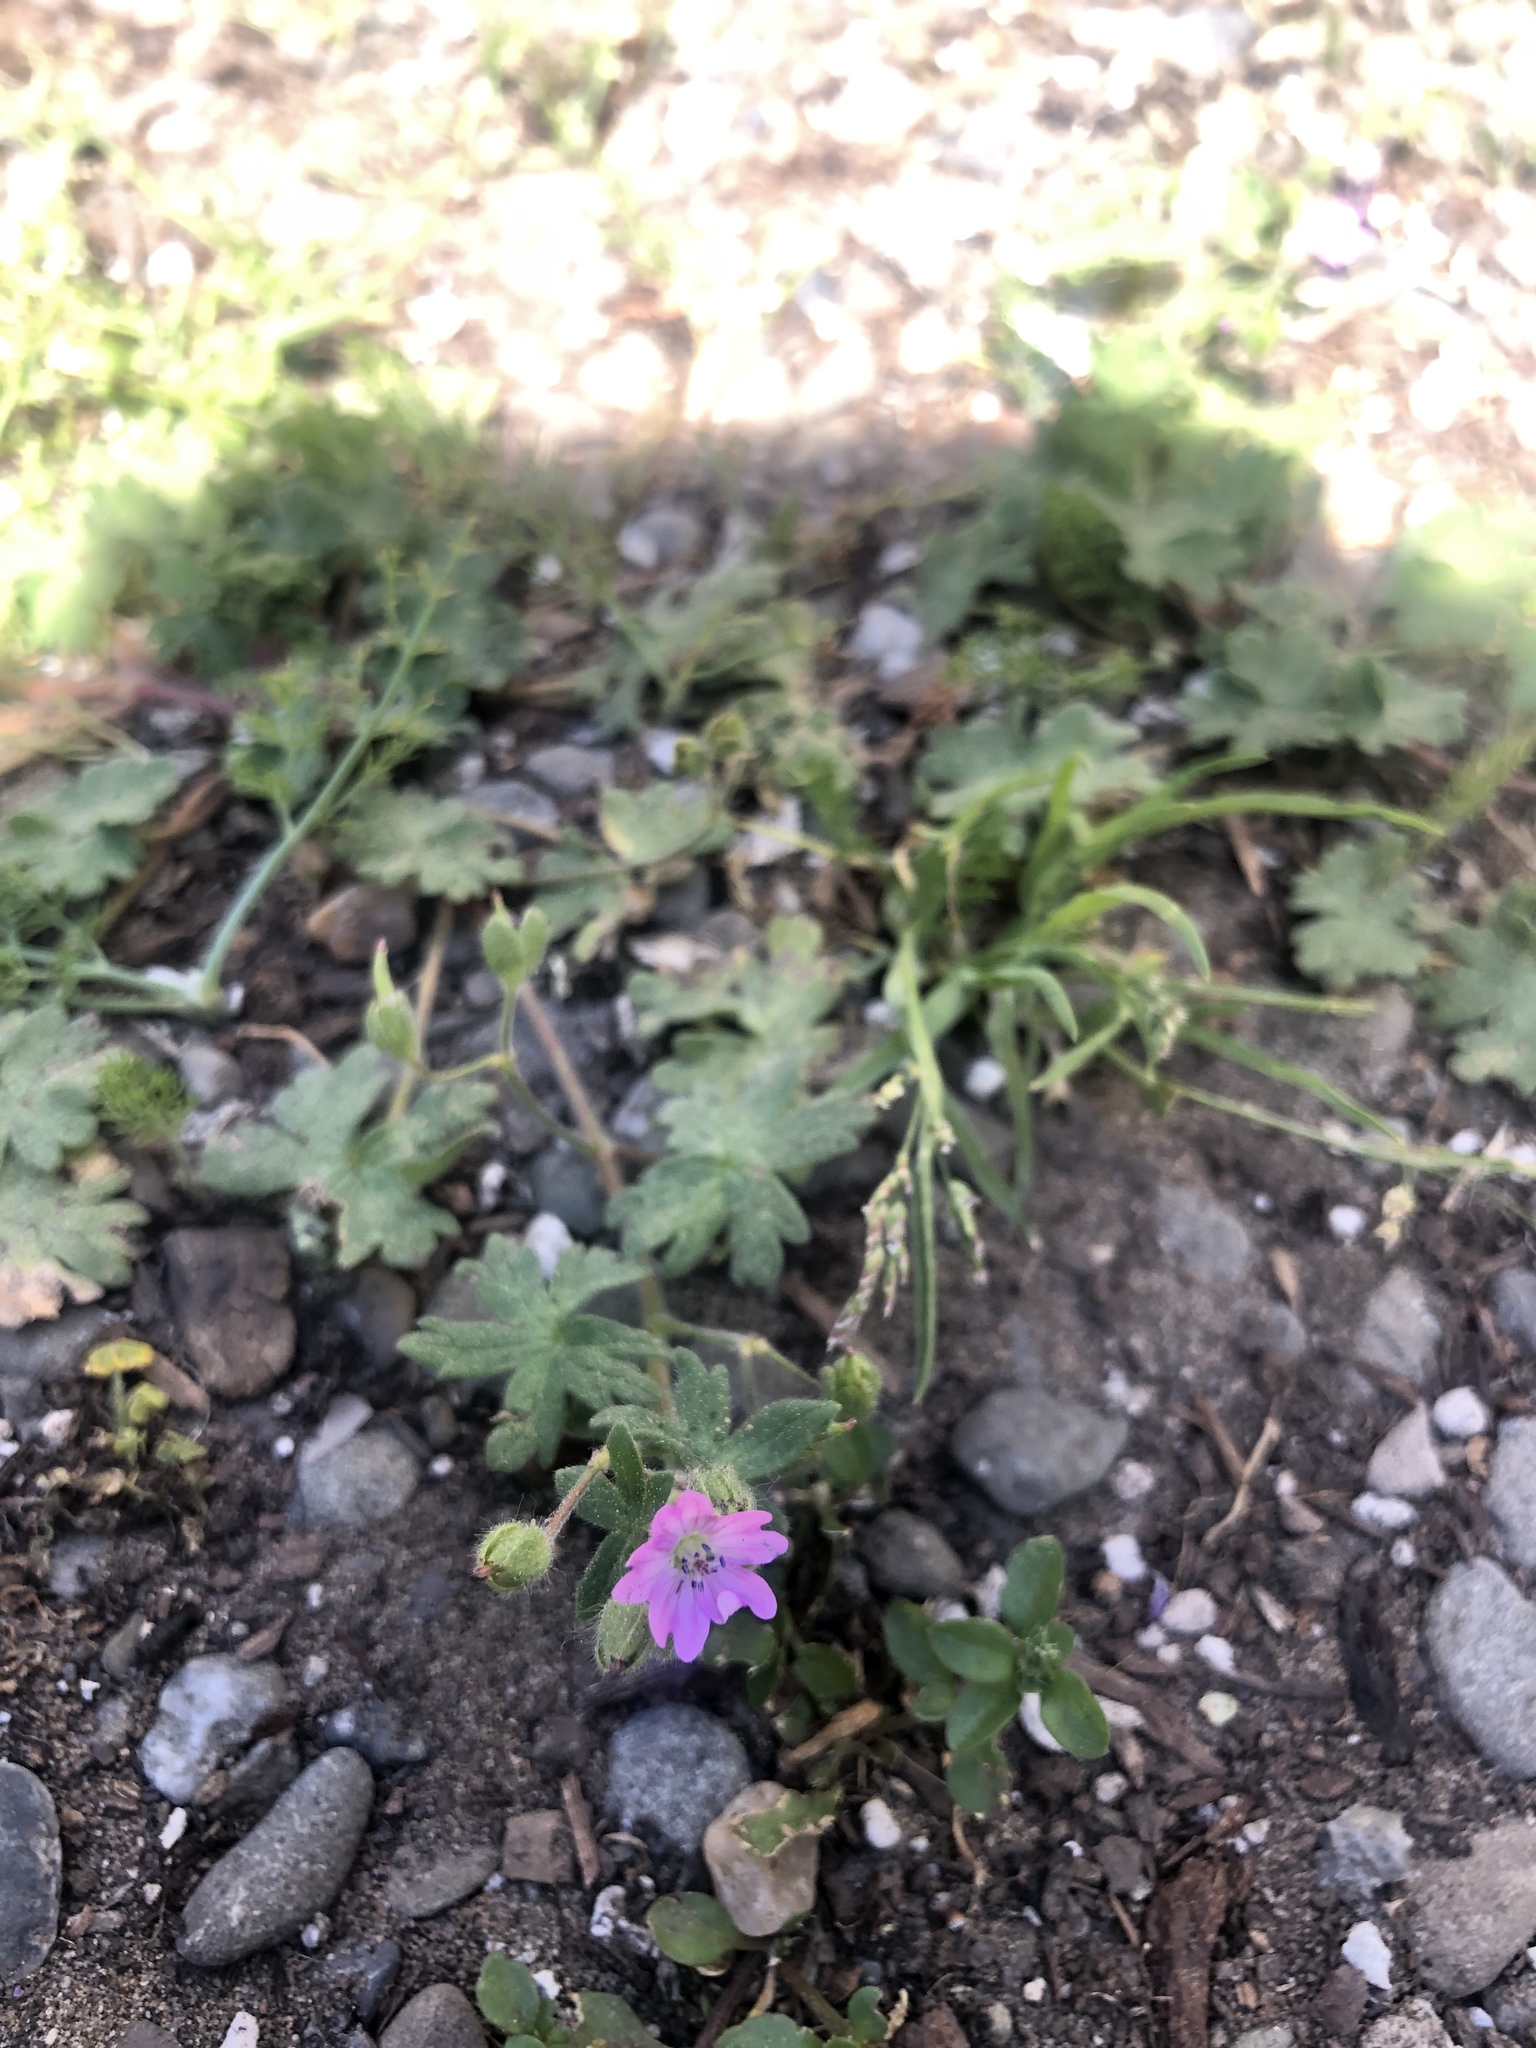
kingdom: Plantae
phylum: Tracheophyta
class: Magnoliopsida
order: Geraniales
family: Geraniaceae
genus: Geranium
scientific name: Geranium molle
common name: Dove's-foot crane's-bill
